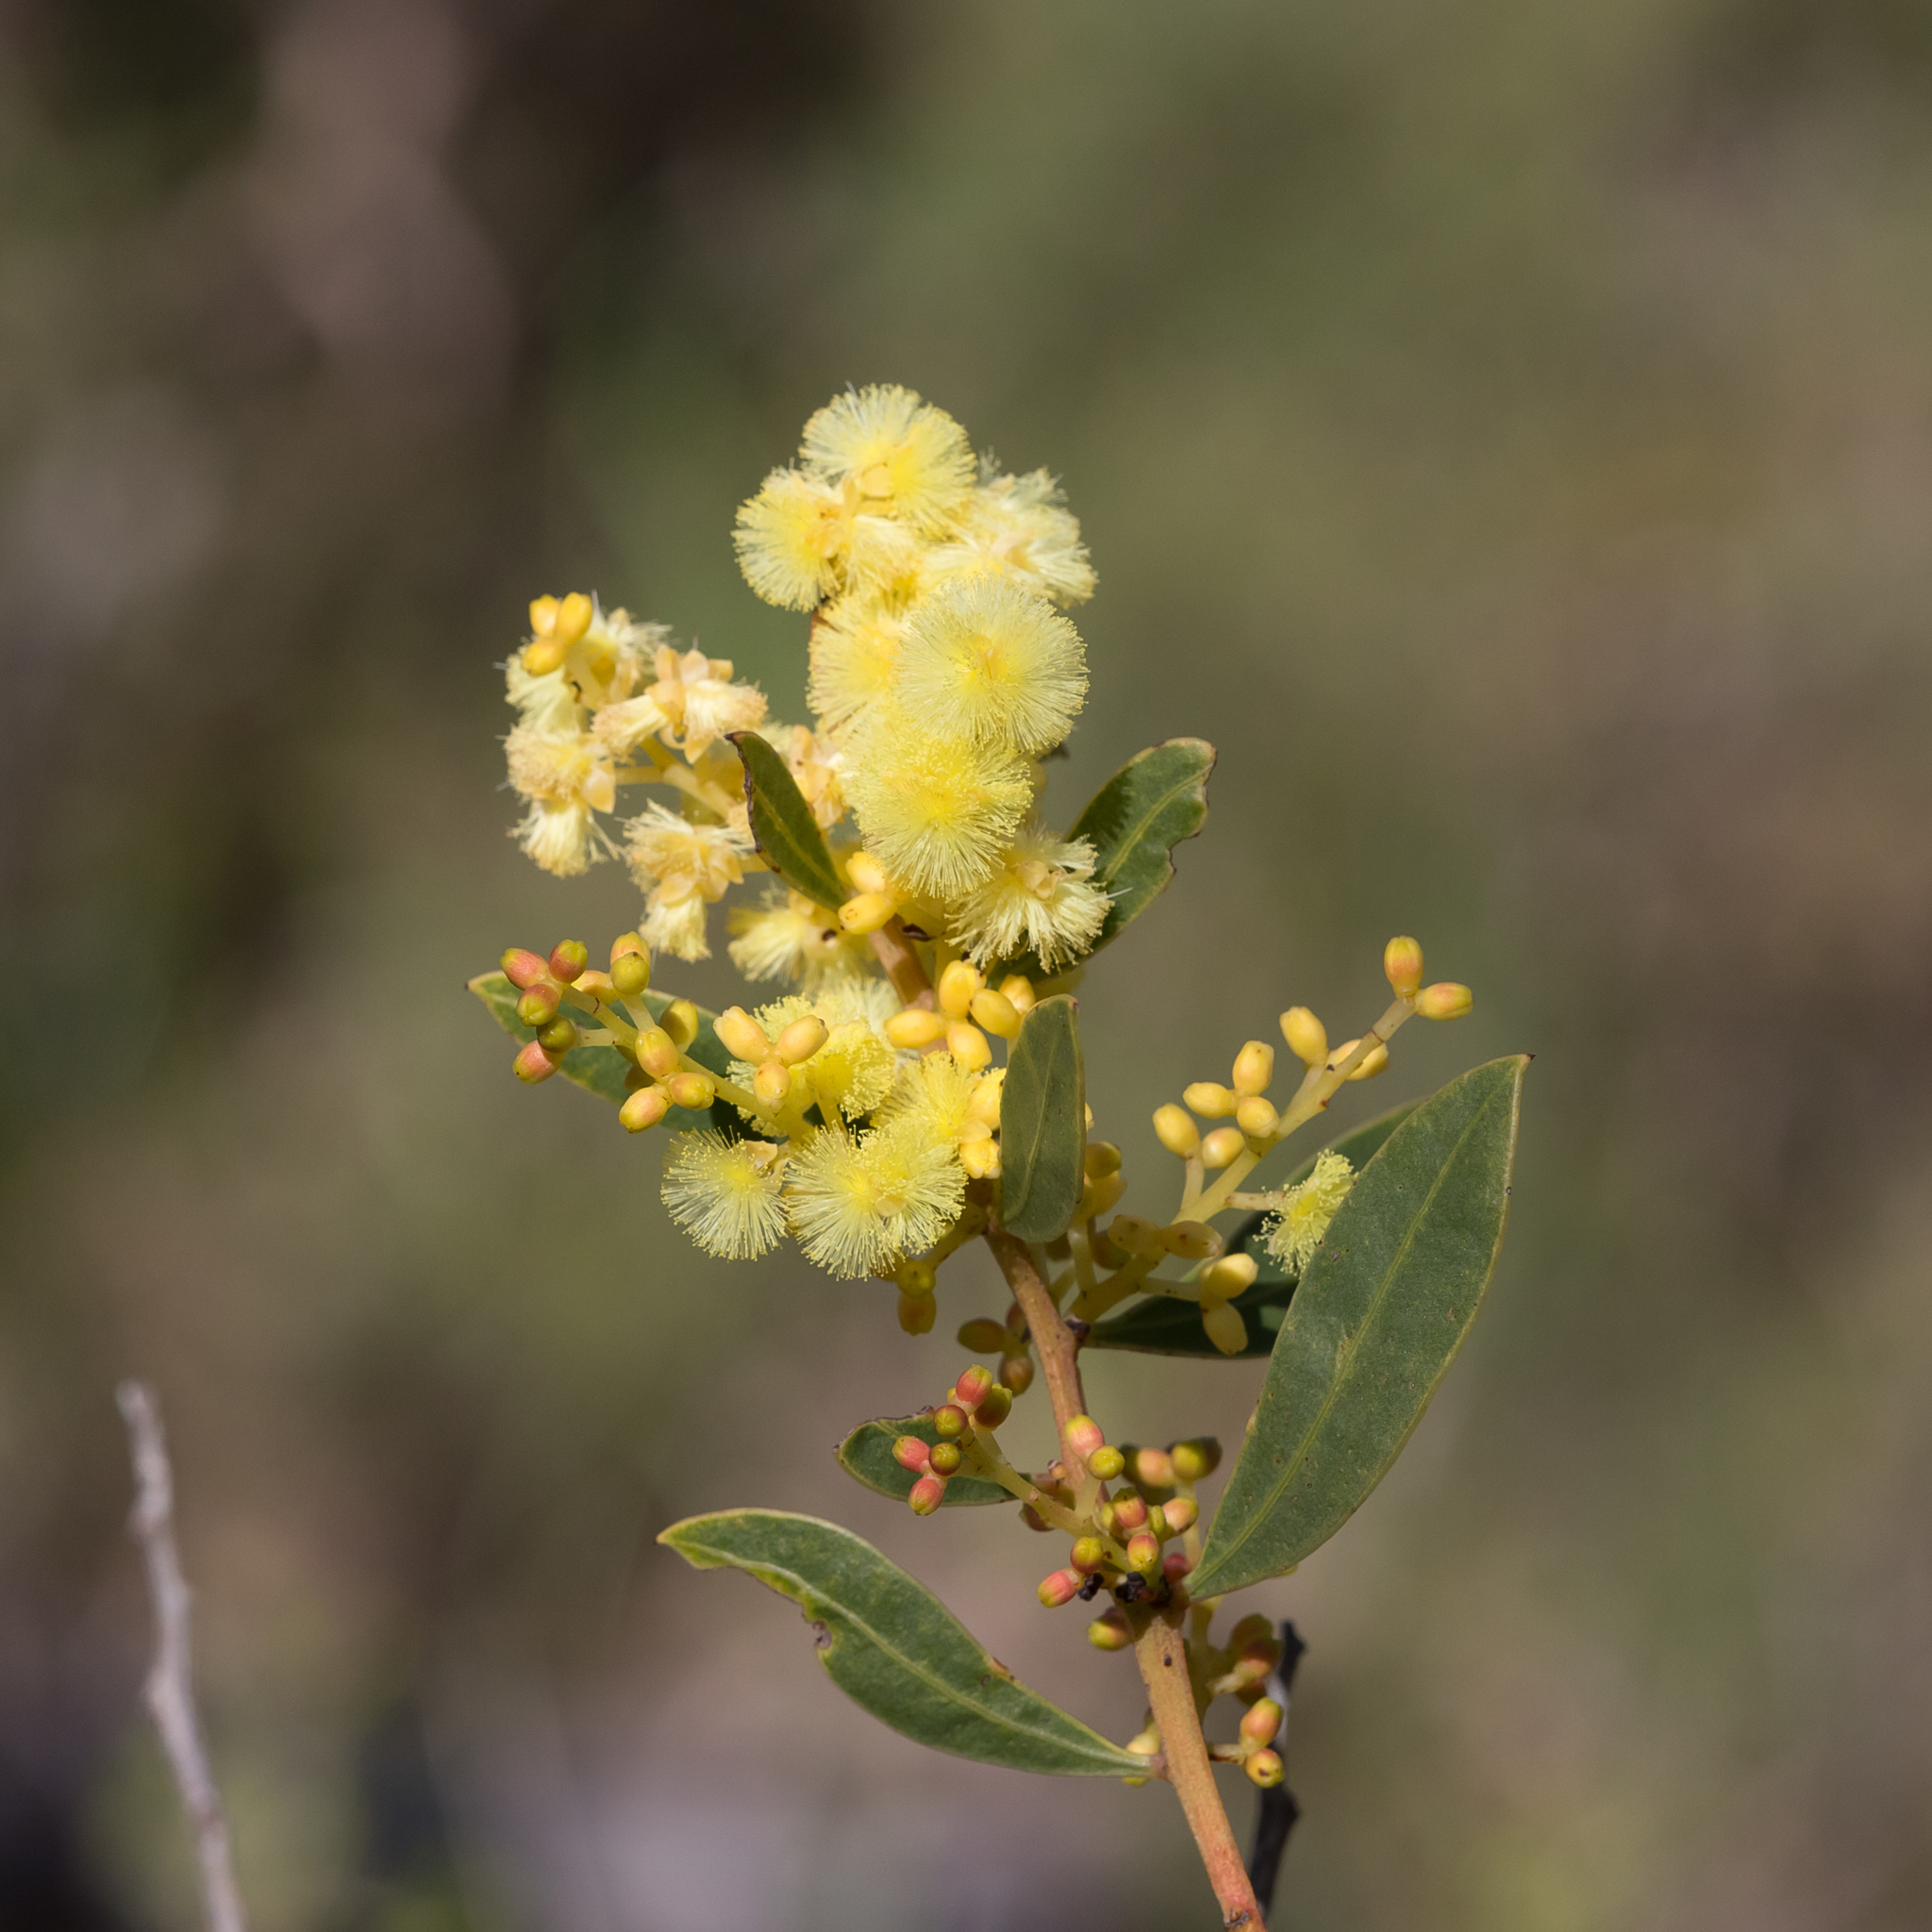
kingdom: Plantae
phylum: Tracheophyta
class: Magnoliopsida
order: Fabales
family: Fabaceae
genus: Acacia
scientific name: Acacia myrtifolia
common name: Myrtle wattle
